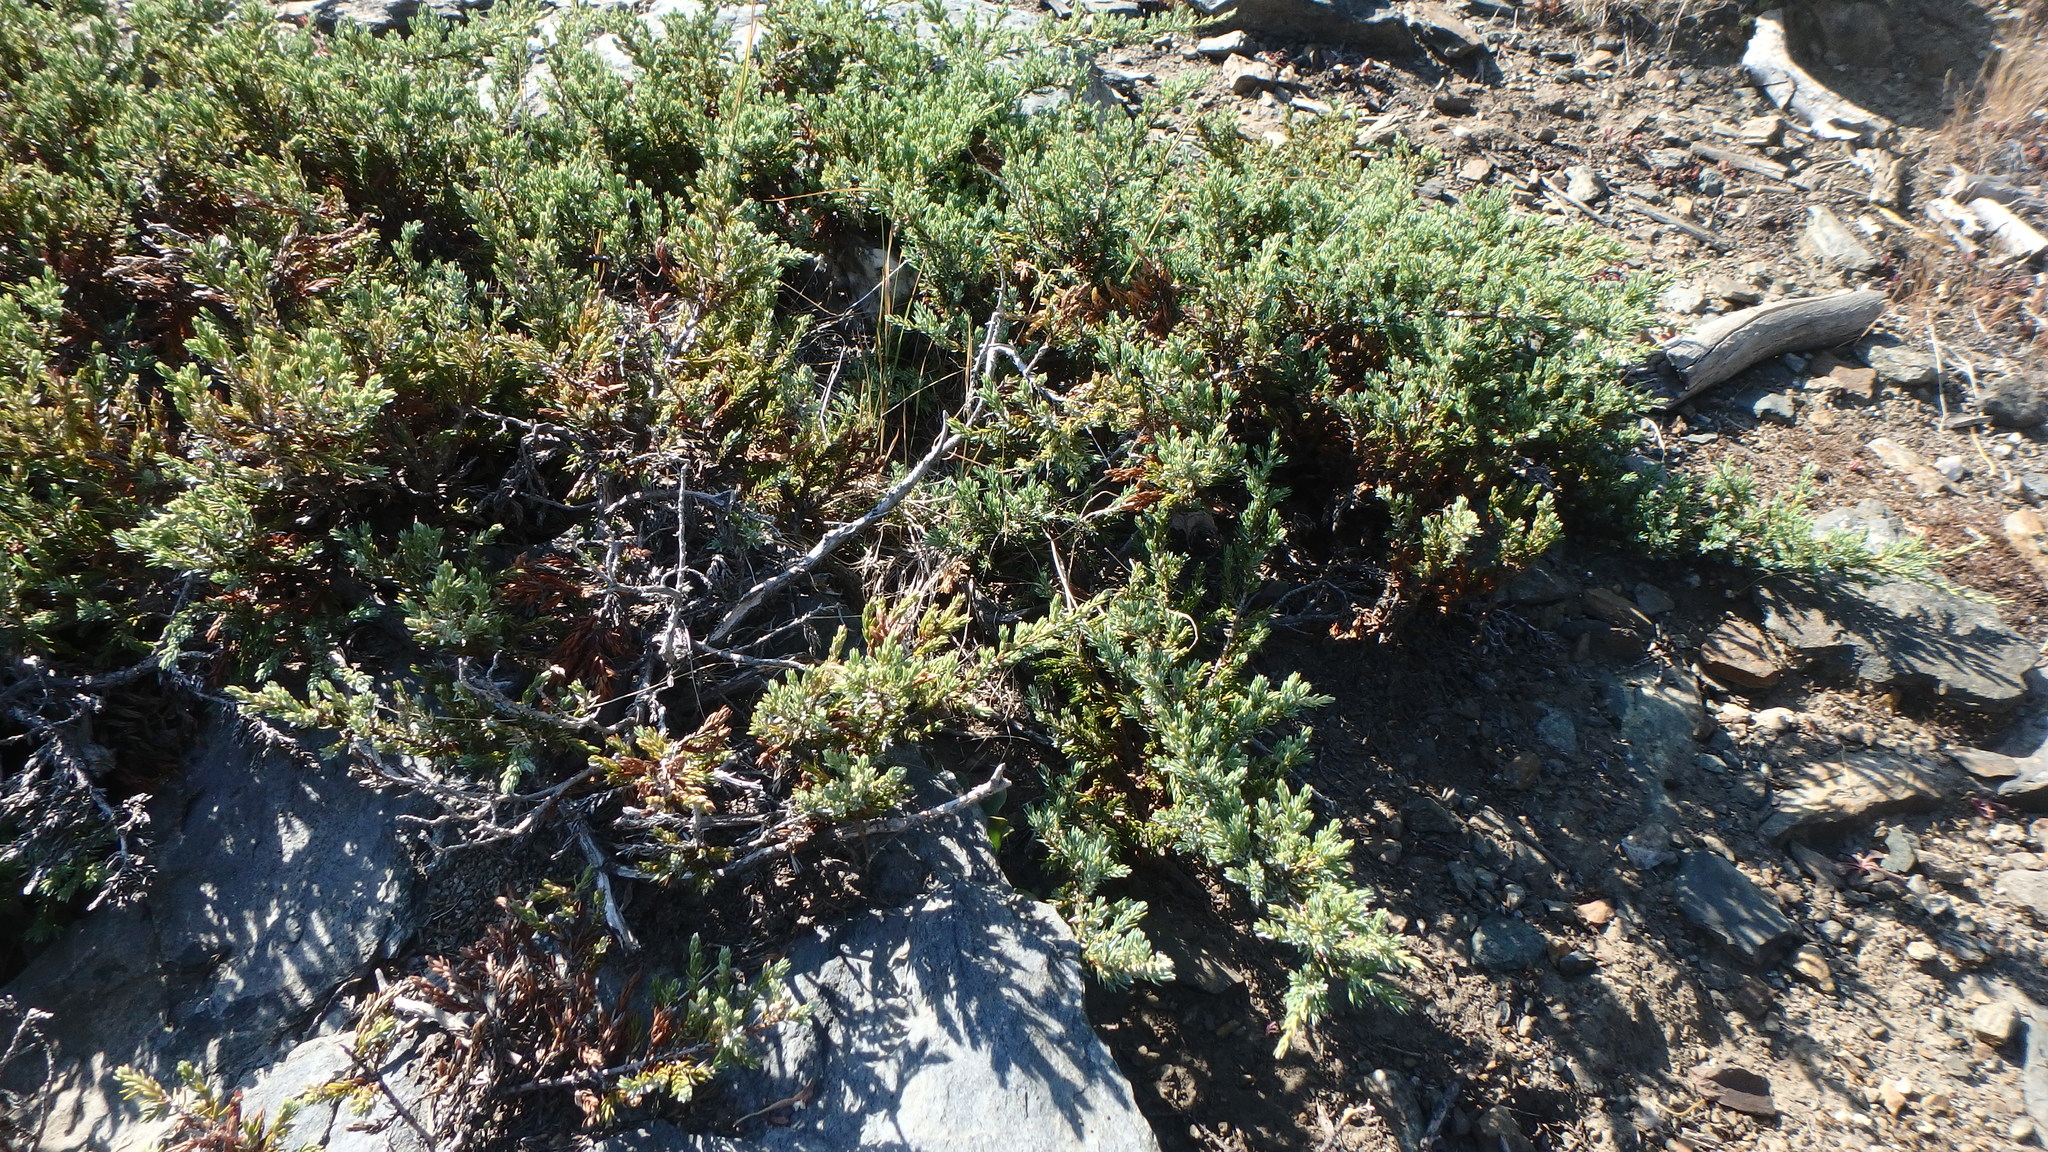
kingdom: Plantae
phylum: Tracheophyta
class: Pinopsida
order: Pinales
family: Cupressaceae
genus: Juniperus
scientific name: Juniperus communis
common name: Common juniper
